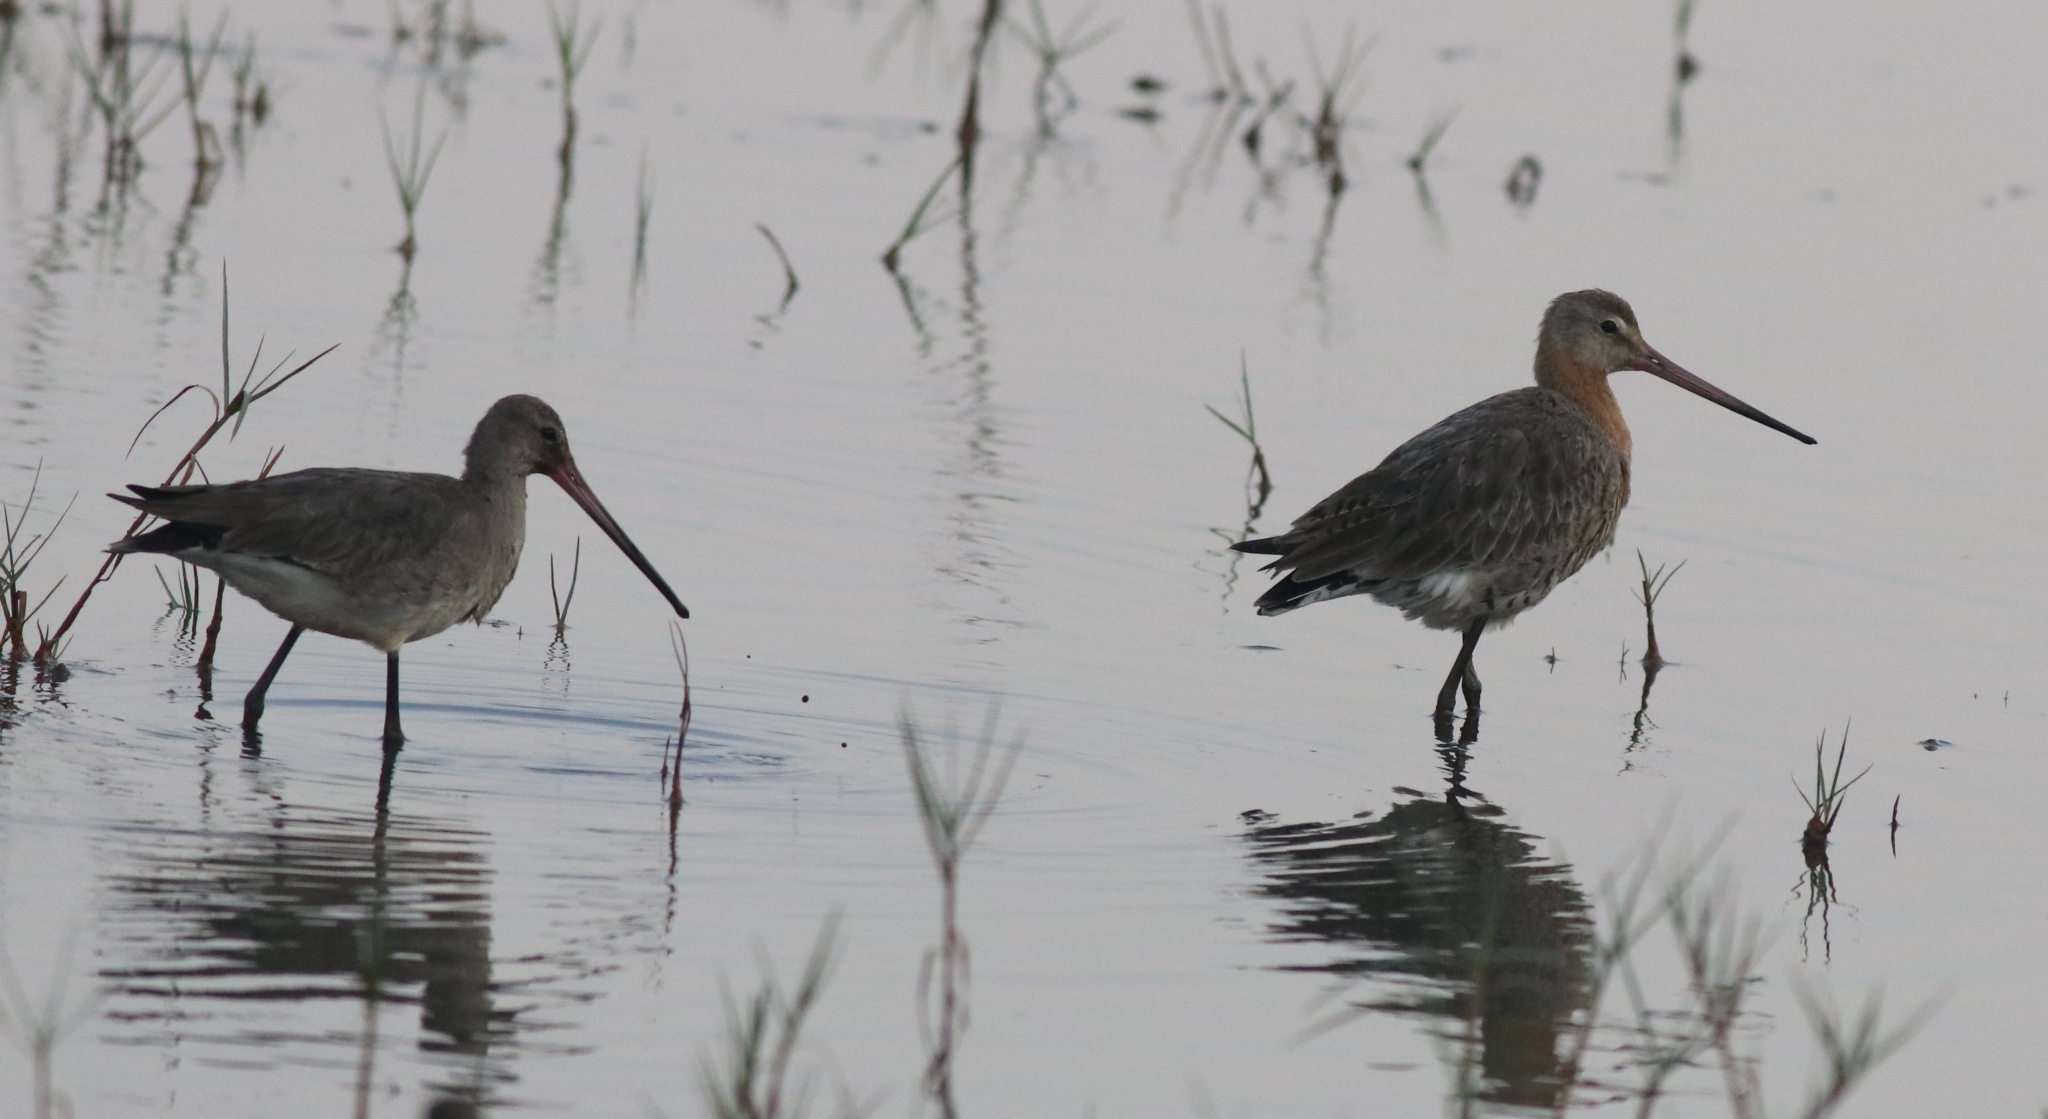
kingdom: Animalia
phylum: Chordata
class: Aves
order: Charadriiformes
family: Scolopacidae
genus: Limosa
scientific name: Limosa limosa
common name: Black-tailed godwit
